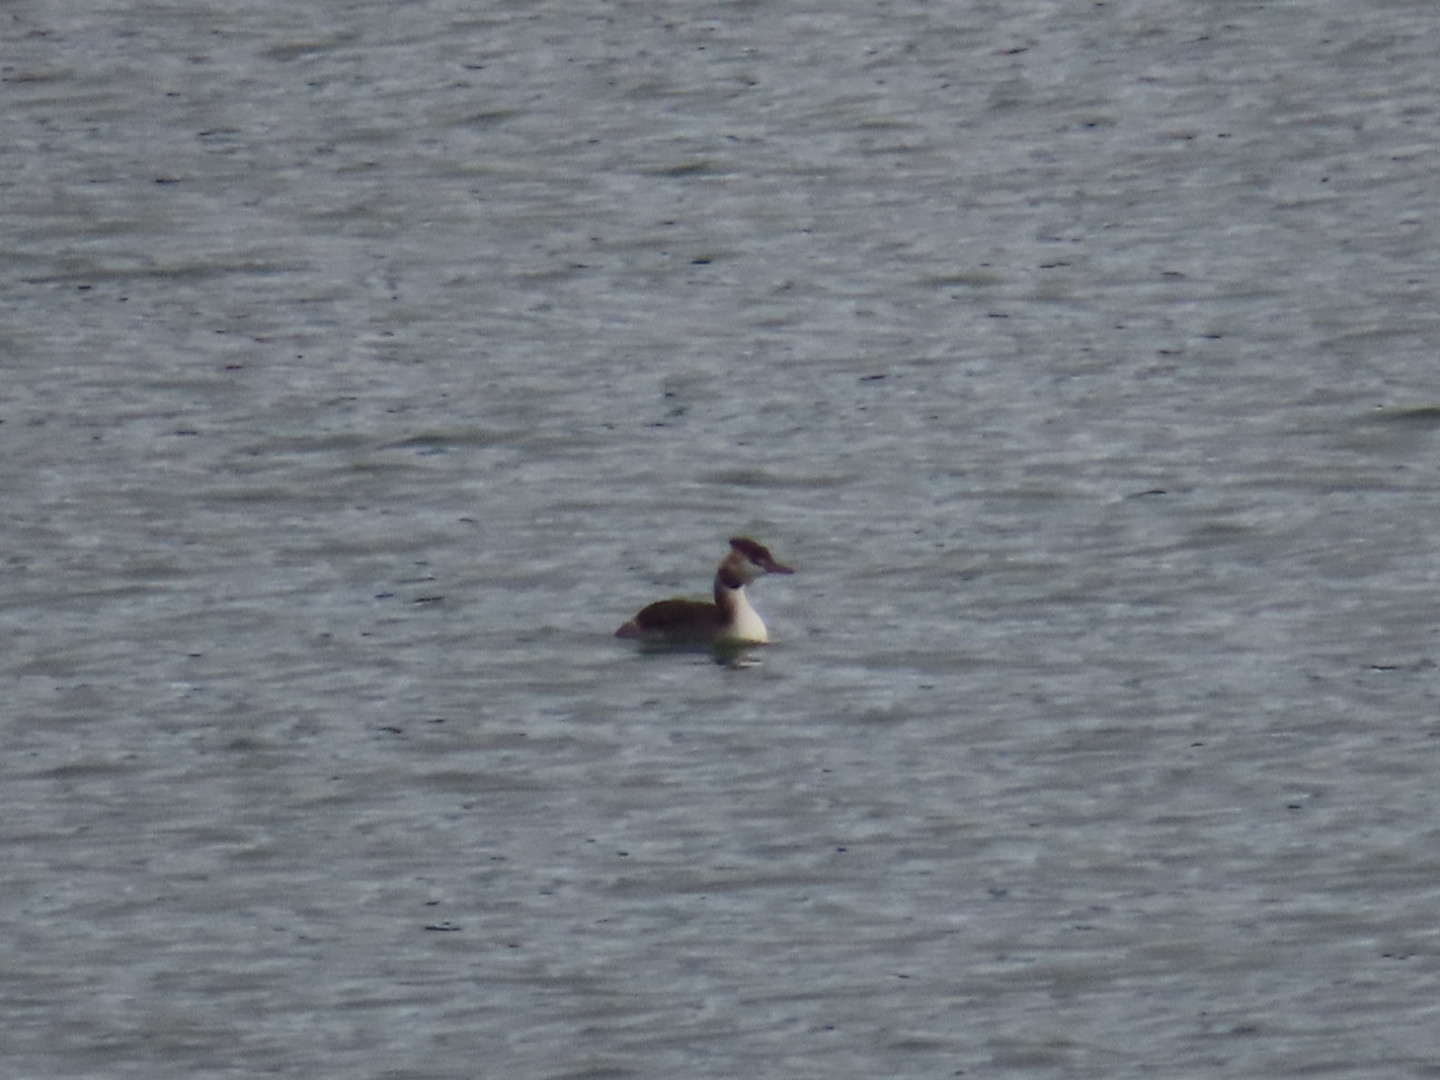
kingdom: Animalia
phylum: Chordata
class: Aves
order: Podicipediformes
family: Podicipedidae
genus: Podiceps
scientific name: Podiceps cristatus
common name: Great crested grebe
